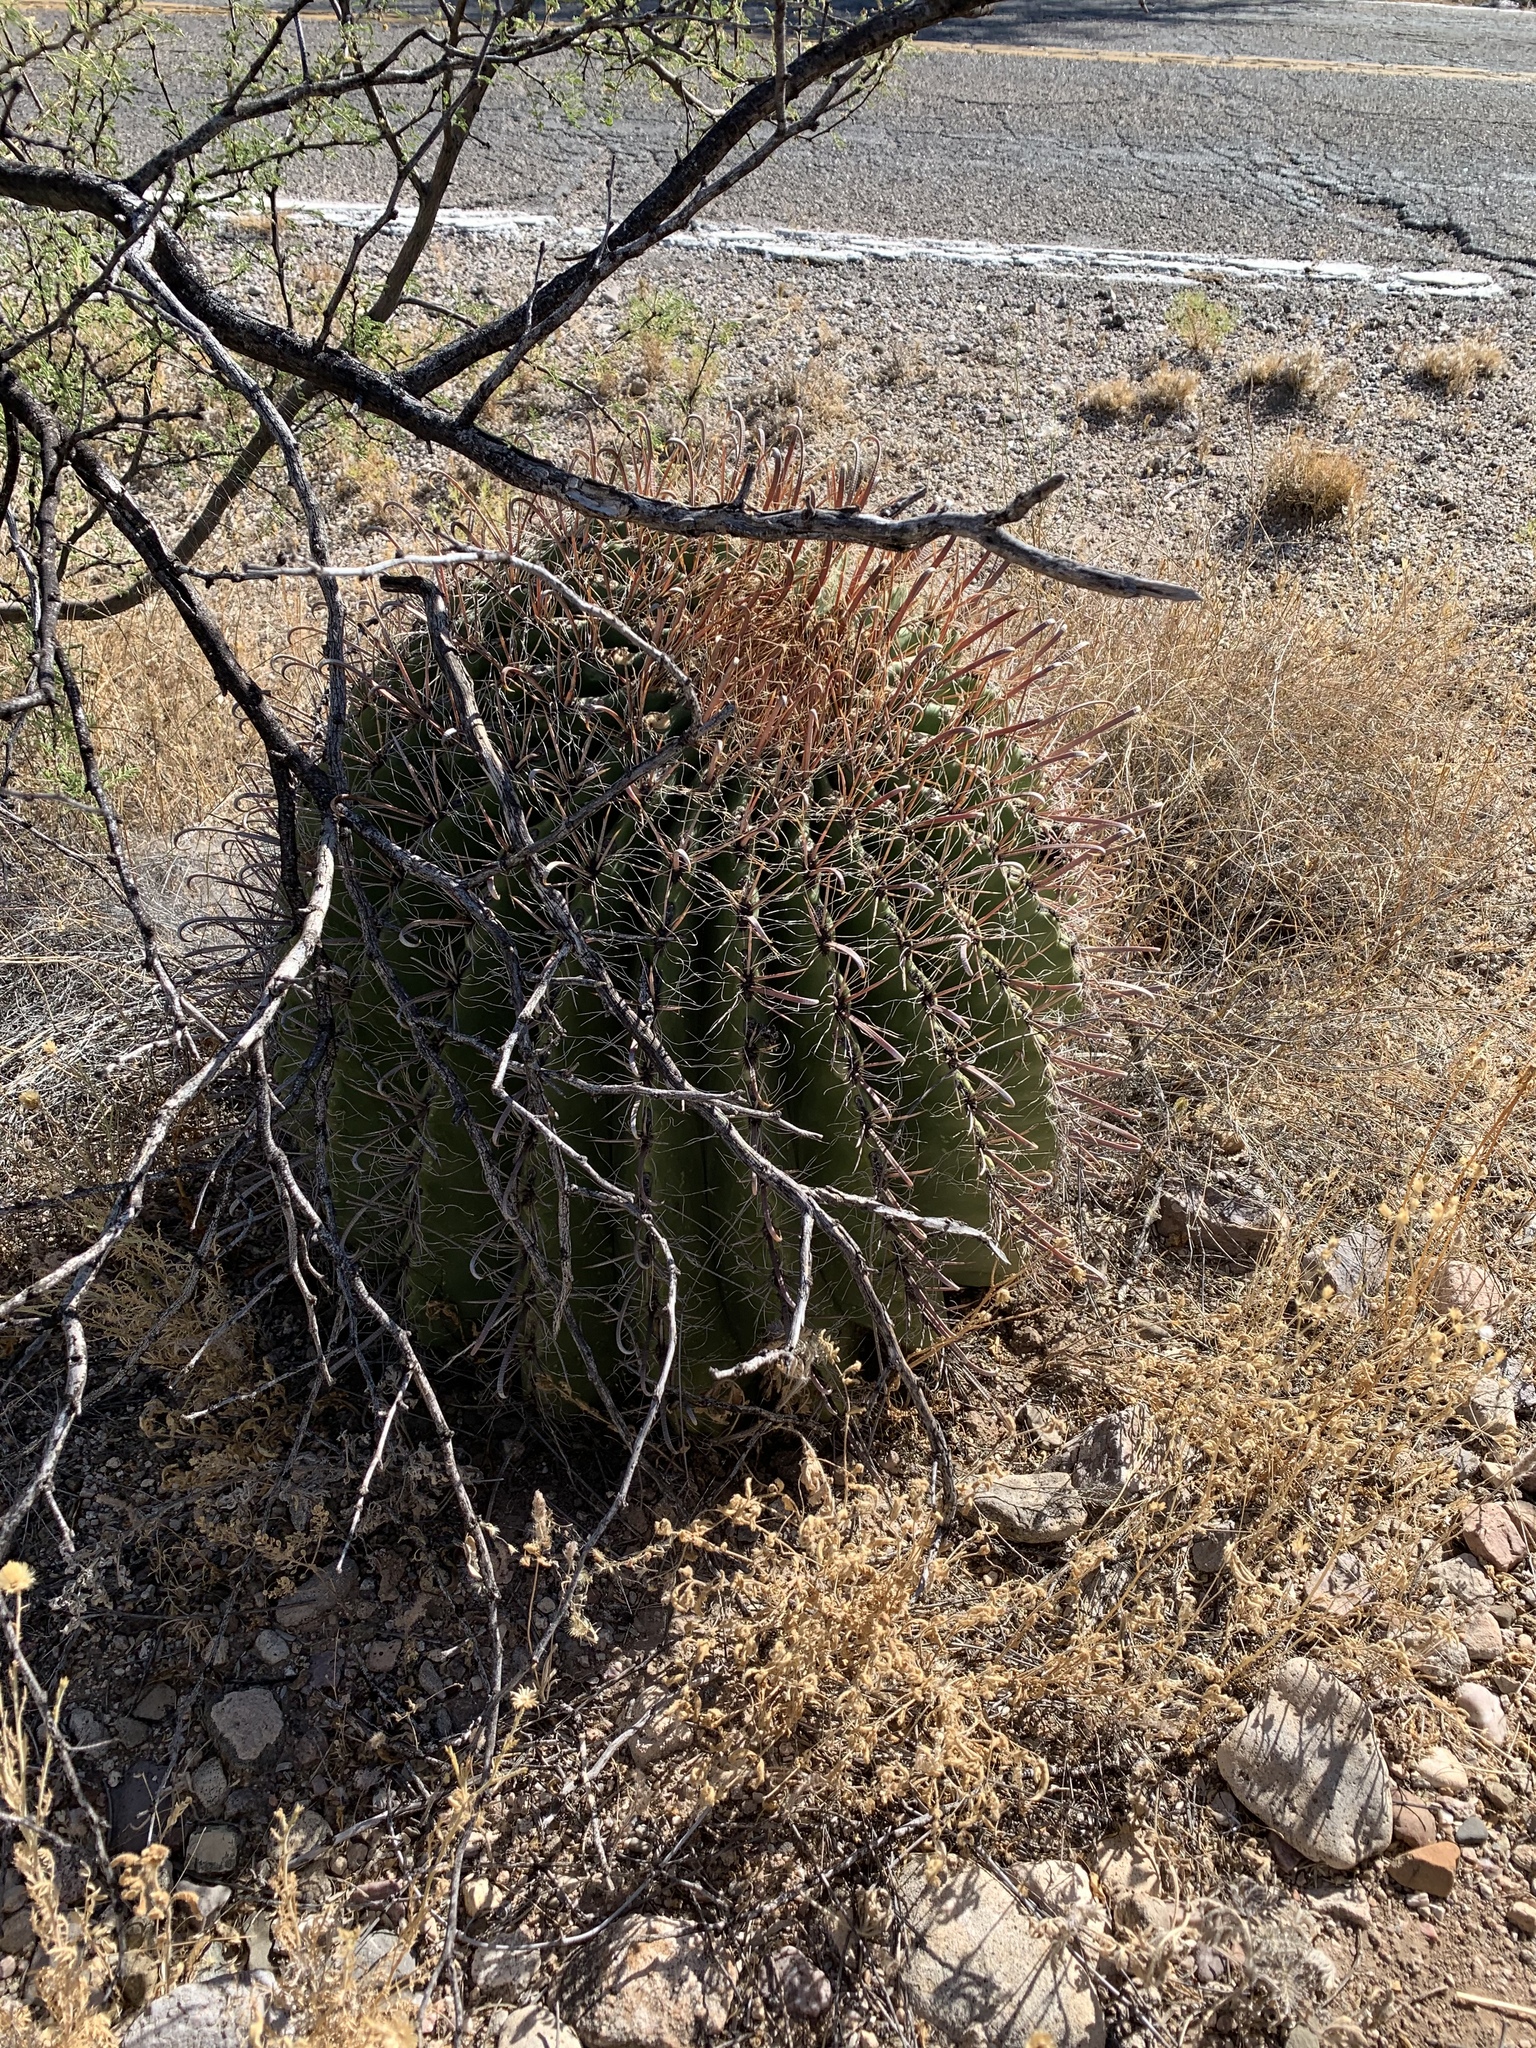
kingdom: Plantae
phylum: Tracheophyta
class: Magnoliopsida
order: Caryophyllales
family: Cactaceae
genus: Ferocactus
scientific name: Ferocactus wislizeni
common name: Candy barrel cactus
